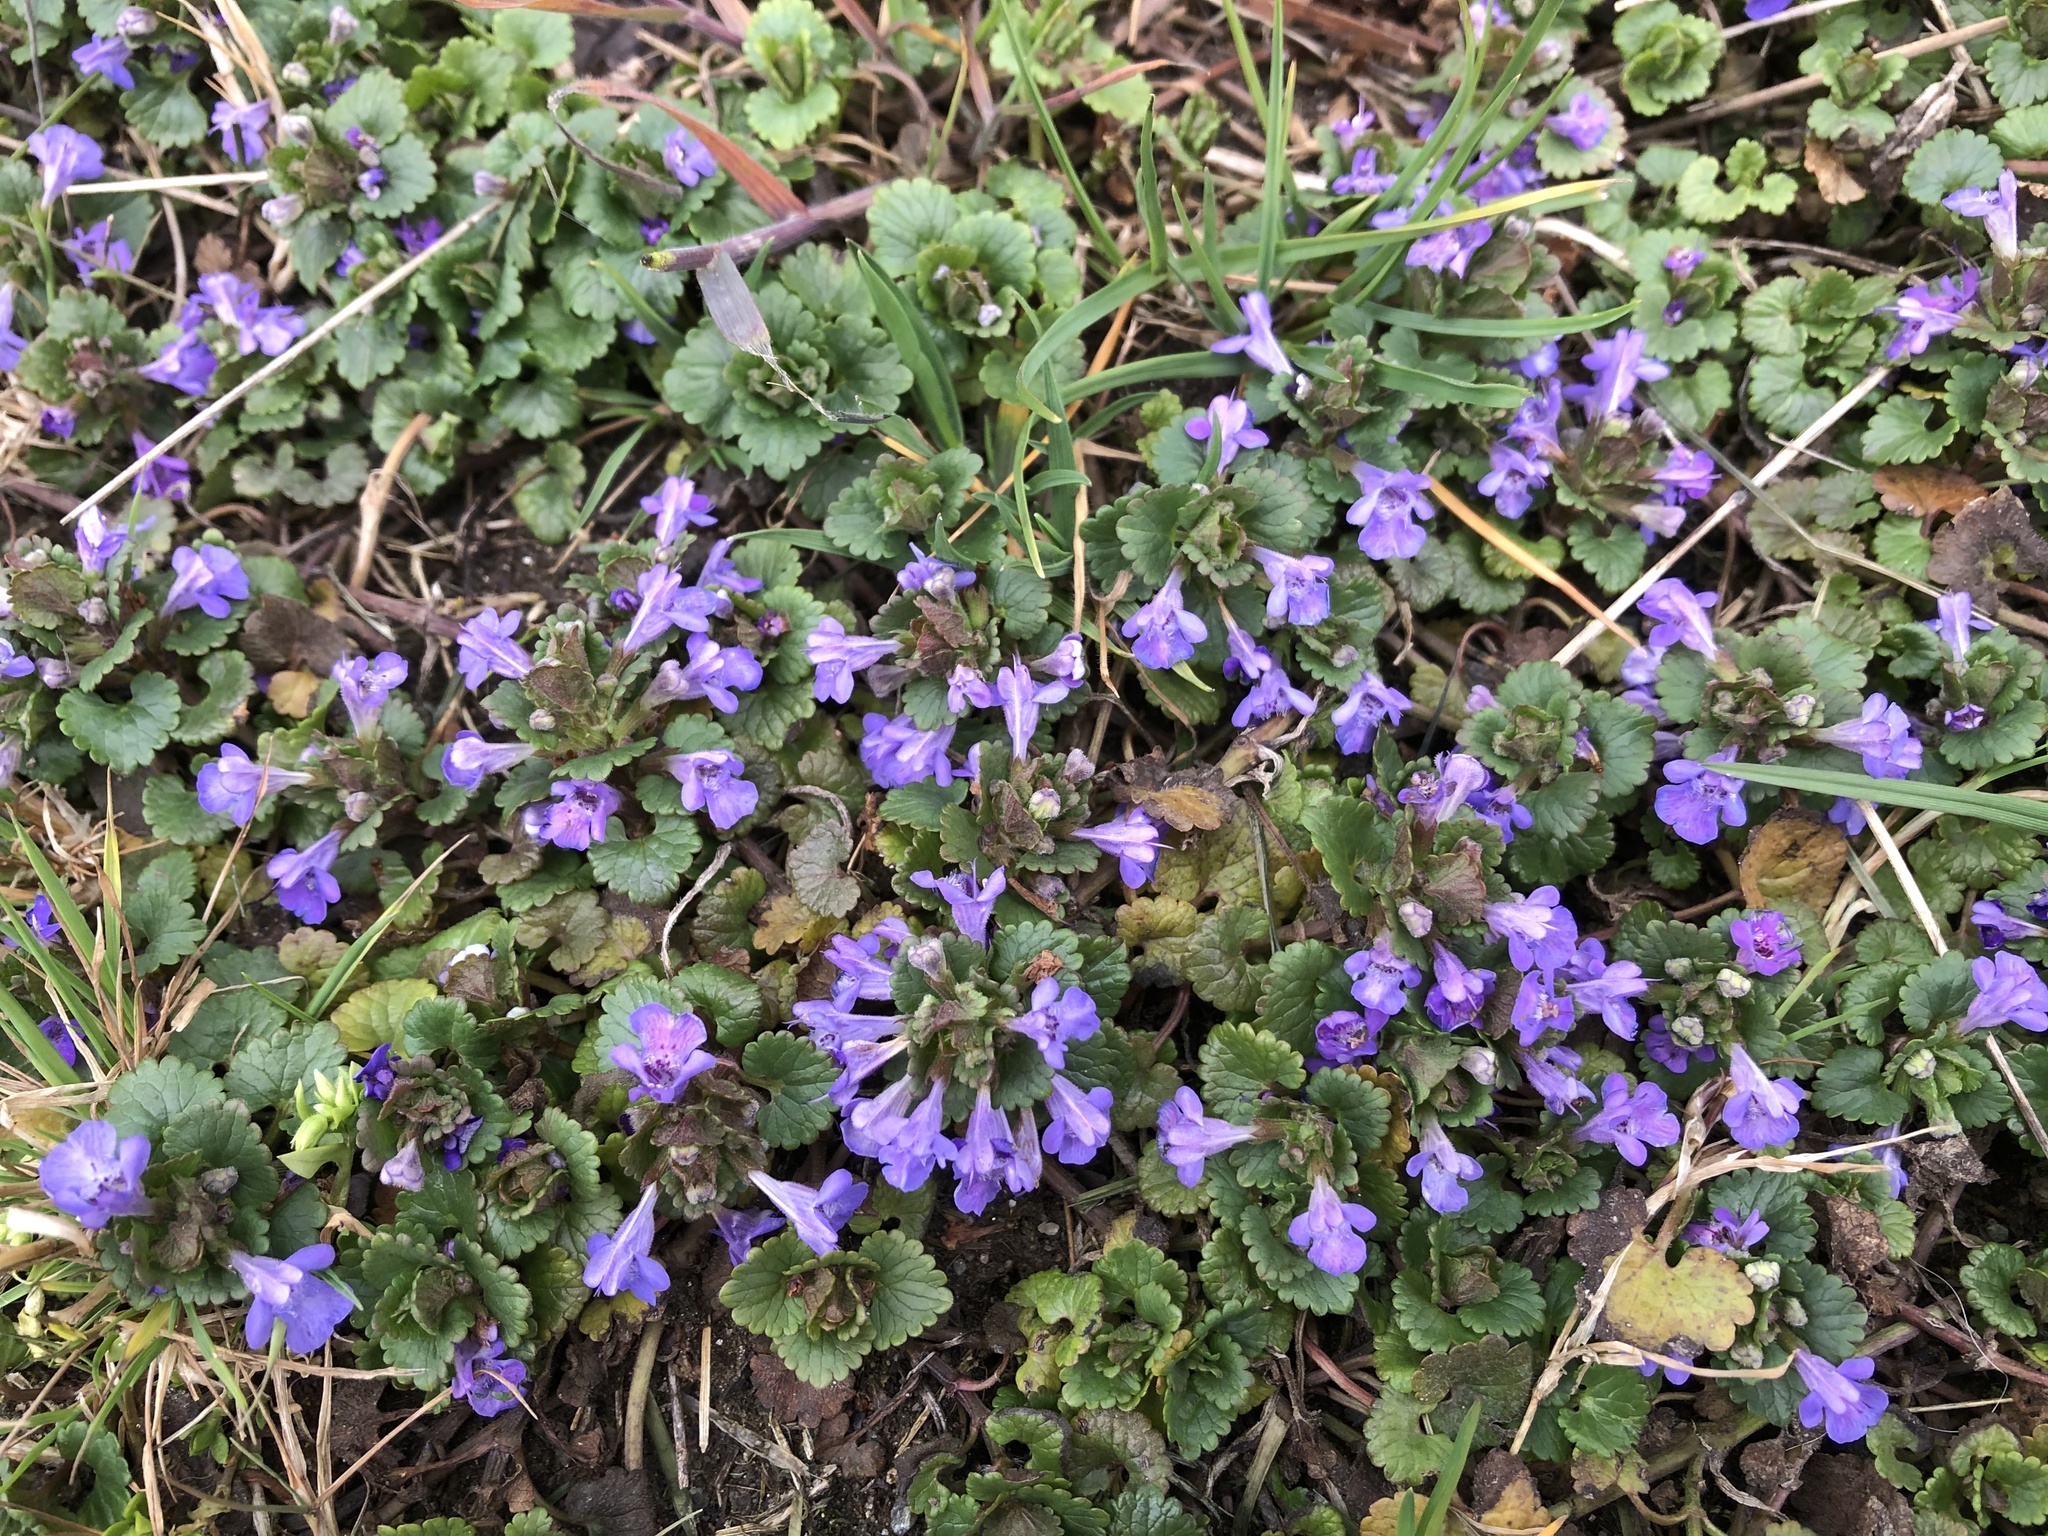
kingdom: Plantae
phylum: Tracheophyta
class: Magnoliopsida
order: Lamiales
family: Lamiaceae
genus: Glechoma
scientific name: Glechoma hederacea
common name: Ground ivy
